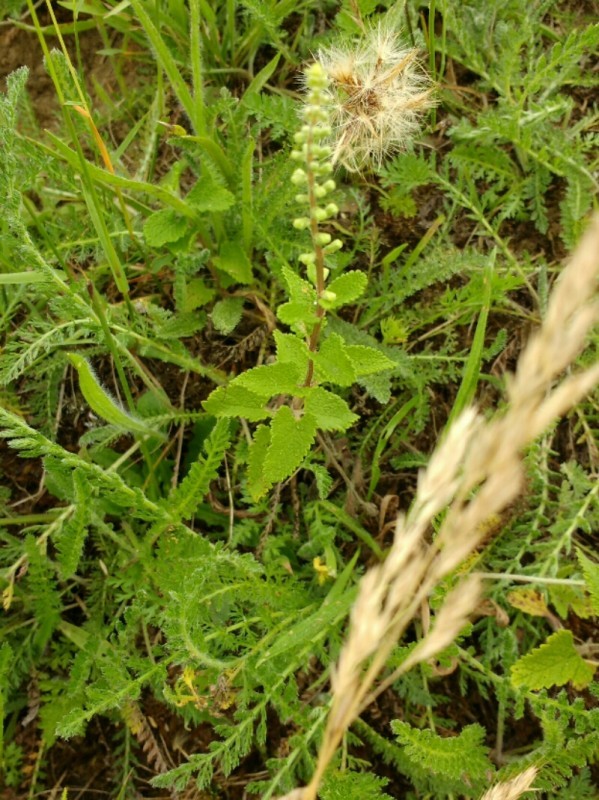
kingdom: Plantae
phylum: Tracheophyta
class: Magnoliopsida
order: Lamiales
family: Lamiaceae
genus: Teucrium
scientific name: Teucrium scorodonia
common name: Woodland germander
